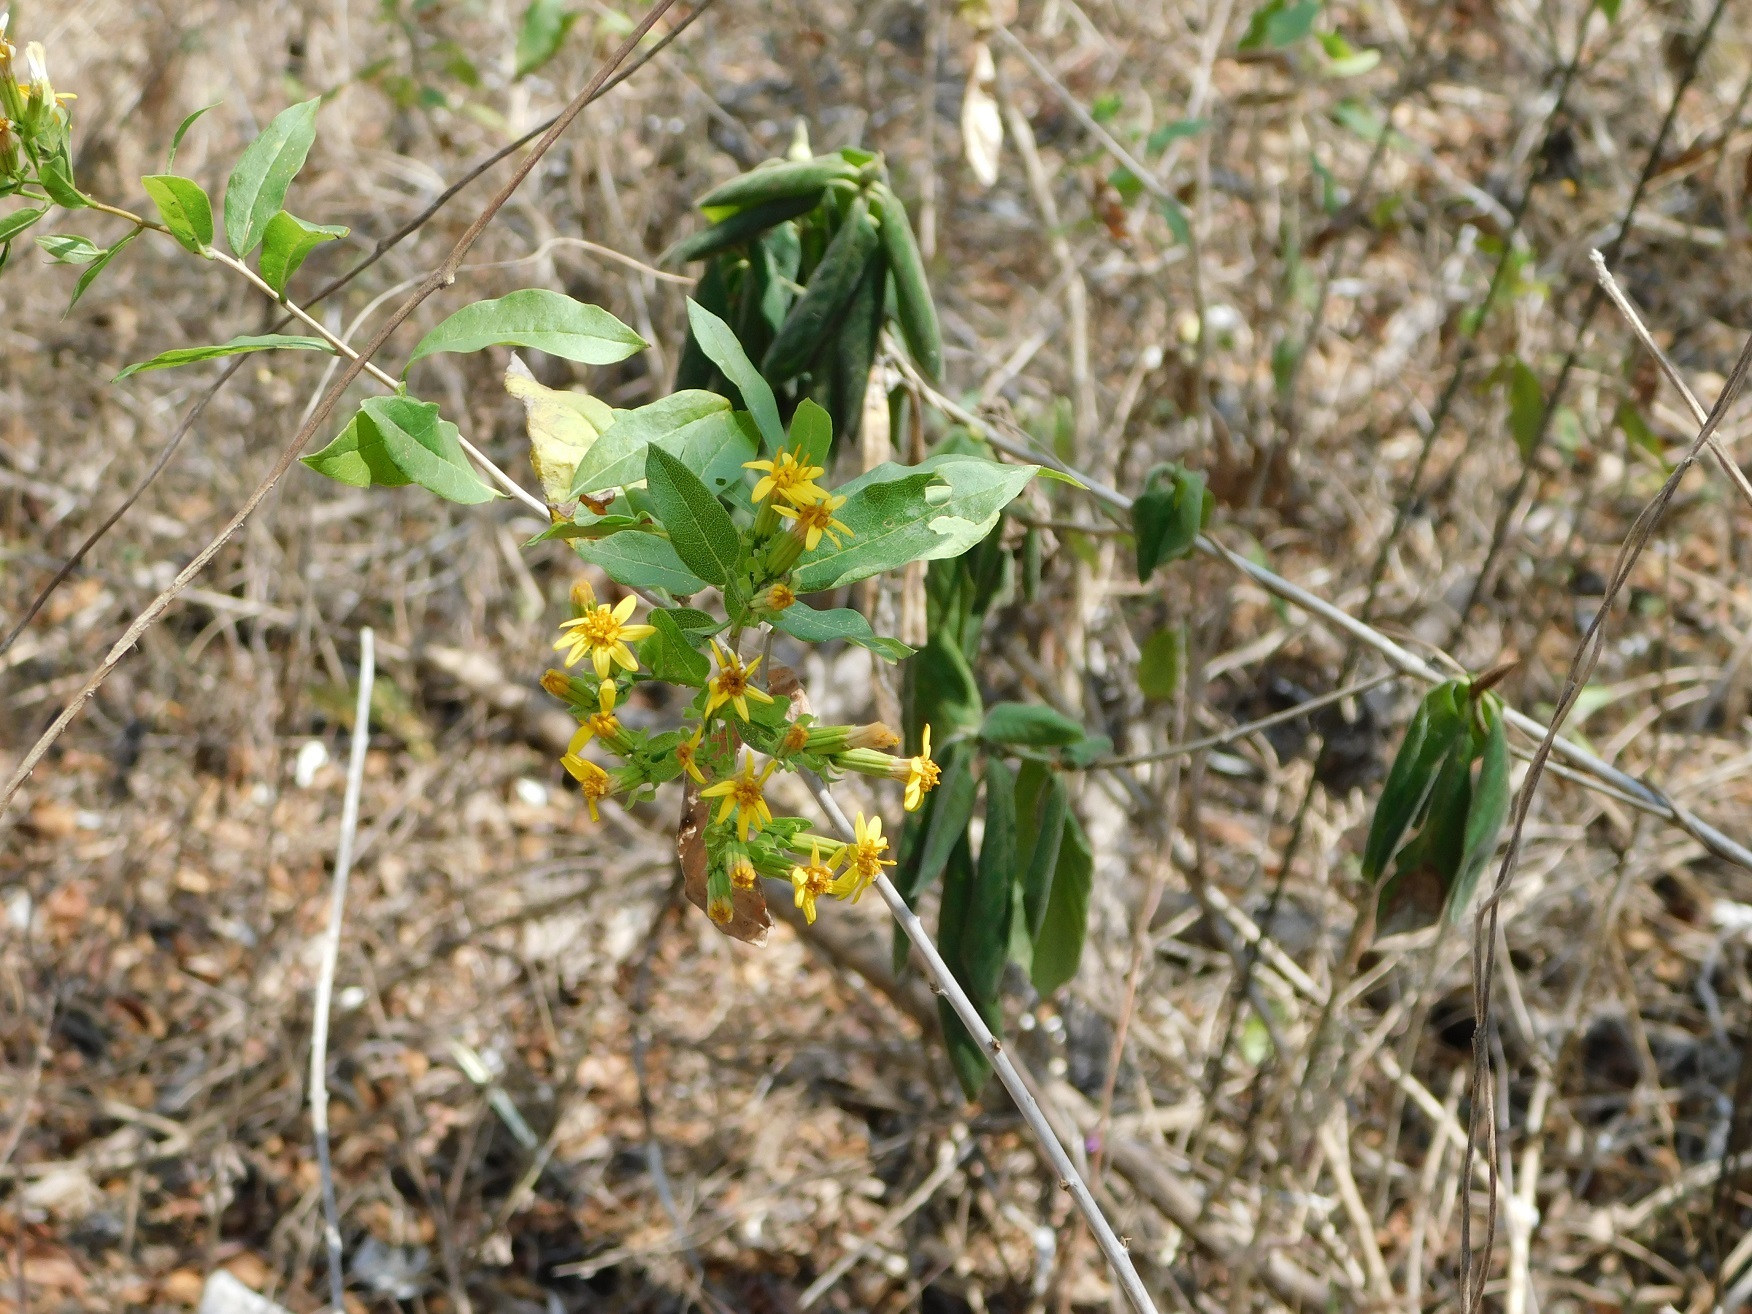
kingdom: Plantae
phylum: Tracheophyta
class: Magnoliopsida
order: Asterales
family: Asteraceae
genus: Trixis
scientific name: Trixis inula
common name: Tropical threefold
